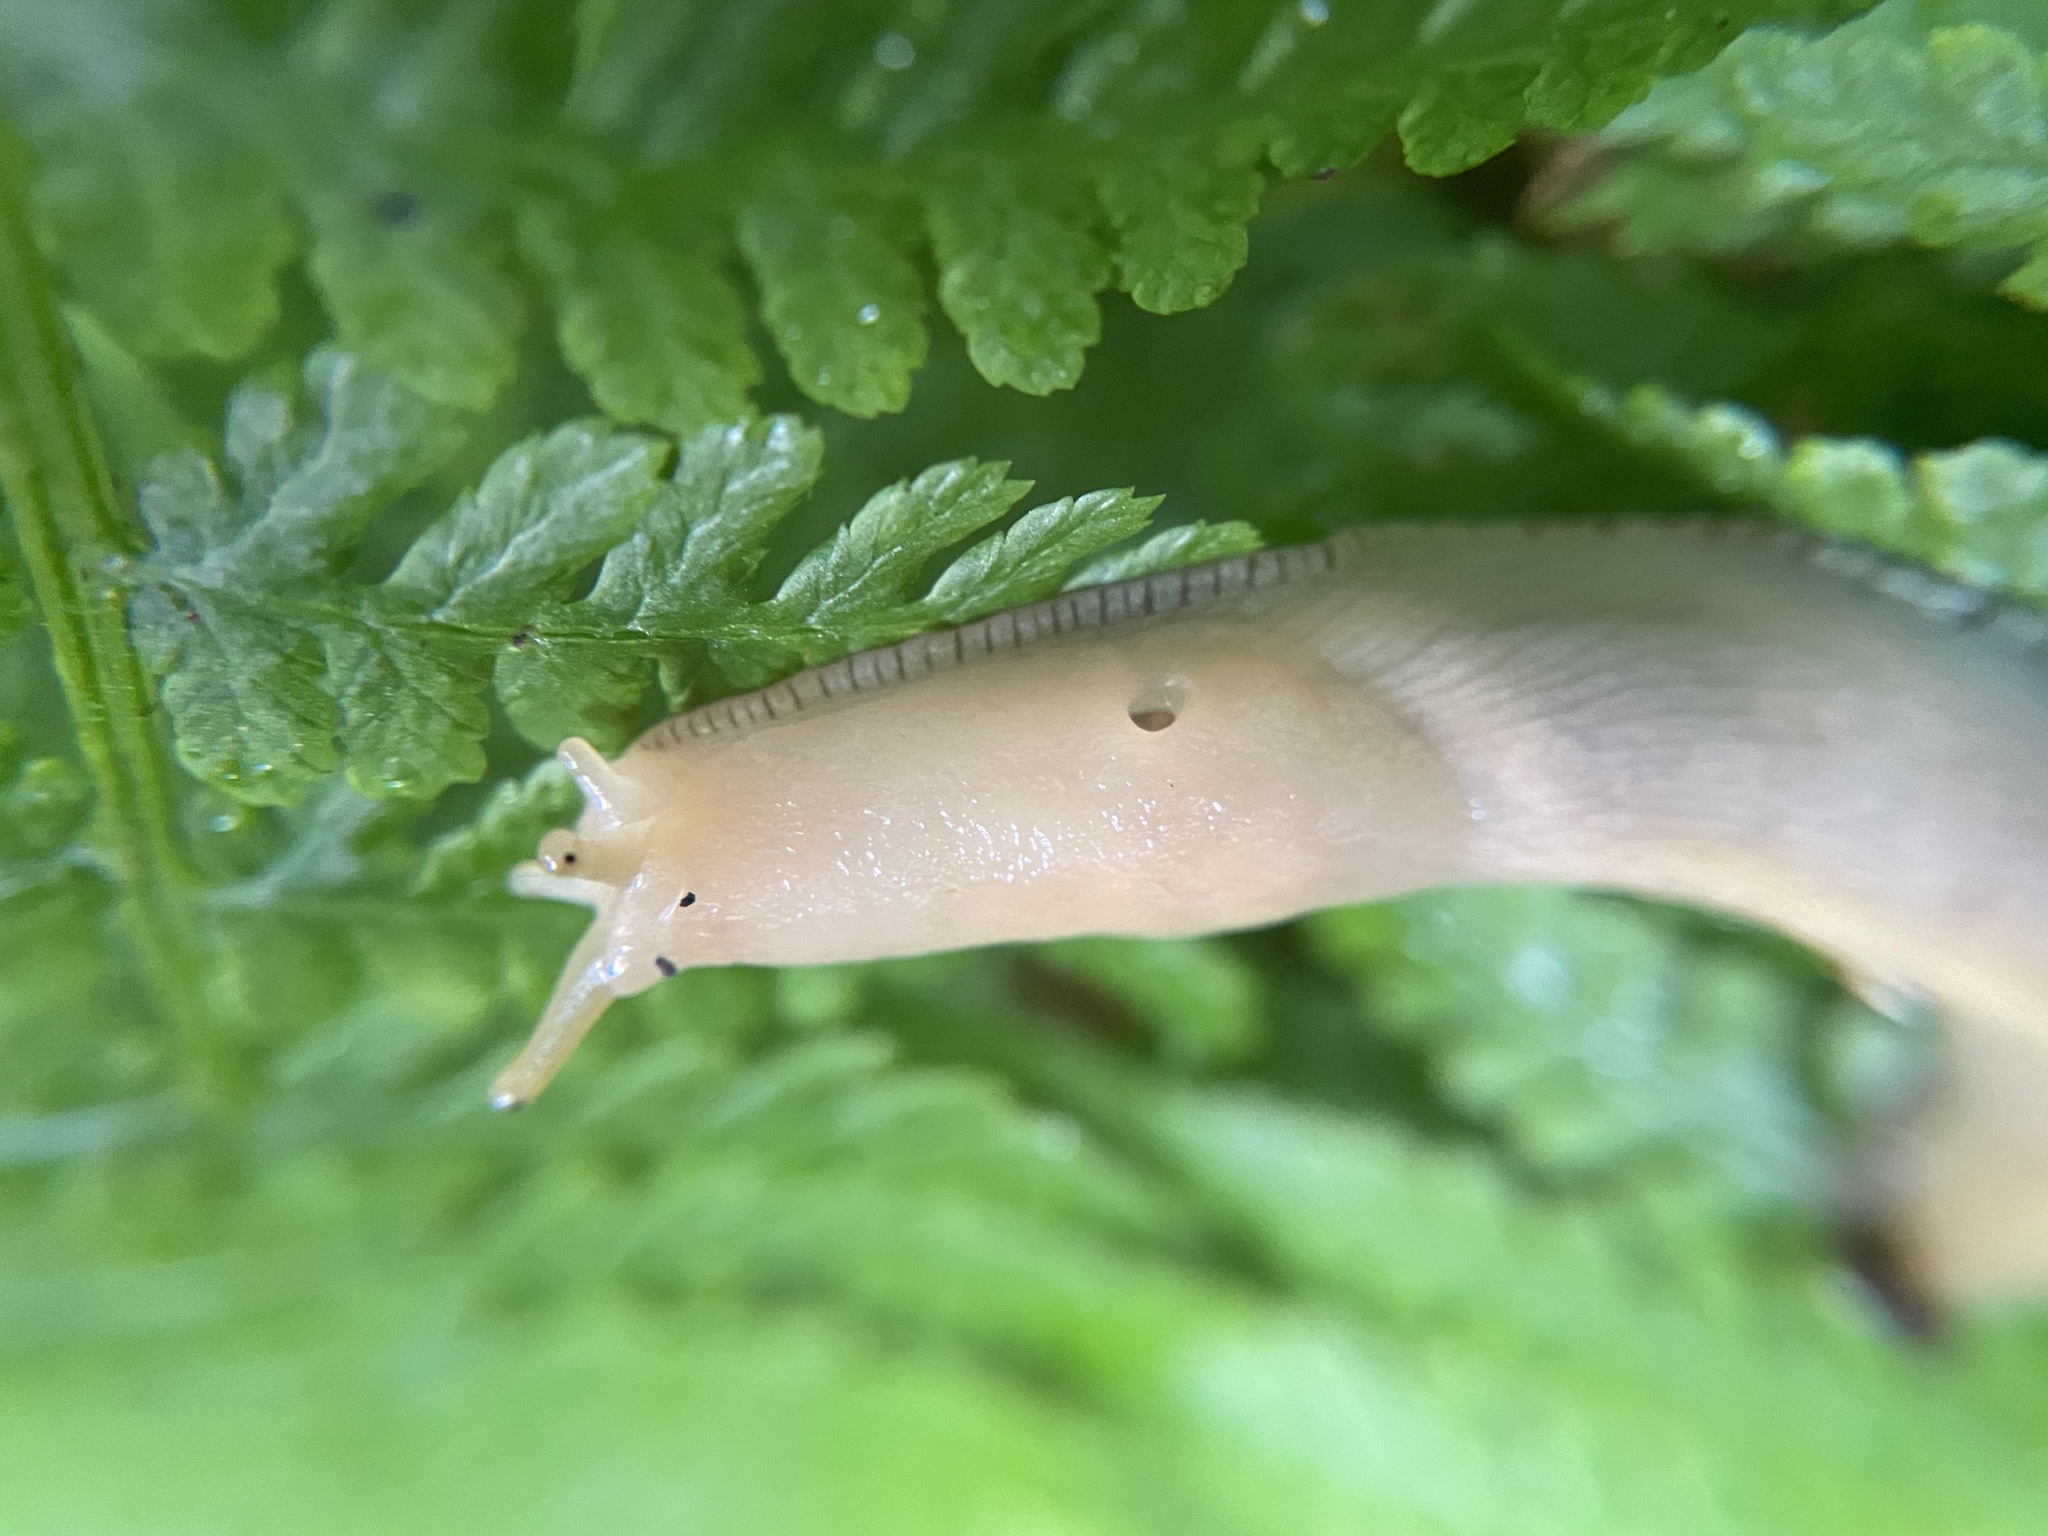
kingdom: Animalia
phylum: Mollusca
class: Gastropoda
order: Stylommatophora
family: Ariolimacidae
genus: Ariolimax
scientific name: Ariolimax columbianus
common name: Pacific banana slug
